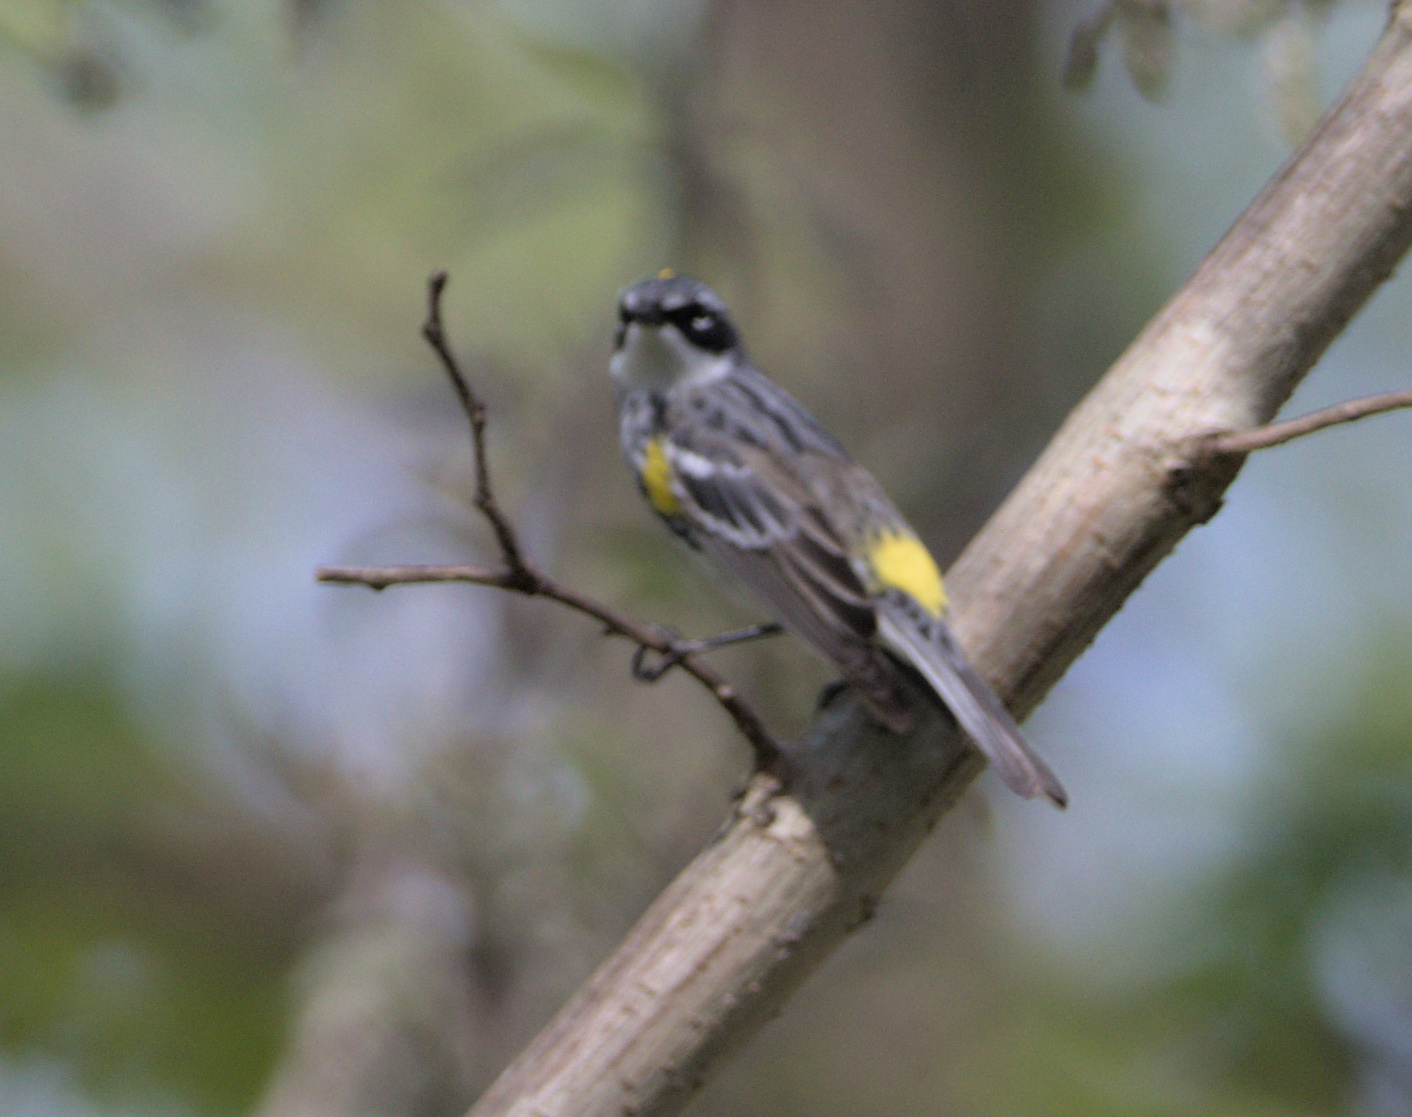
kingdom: Animalia
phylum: Chordata
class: Aves
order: Passeriformes
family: Parulidae
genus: Setophaga
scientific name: Setophaga coronata
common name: Myrtle warbler
